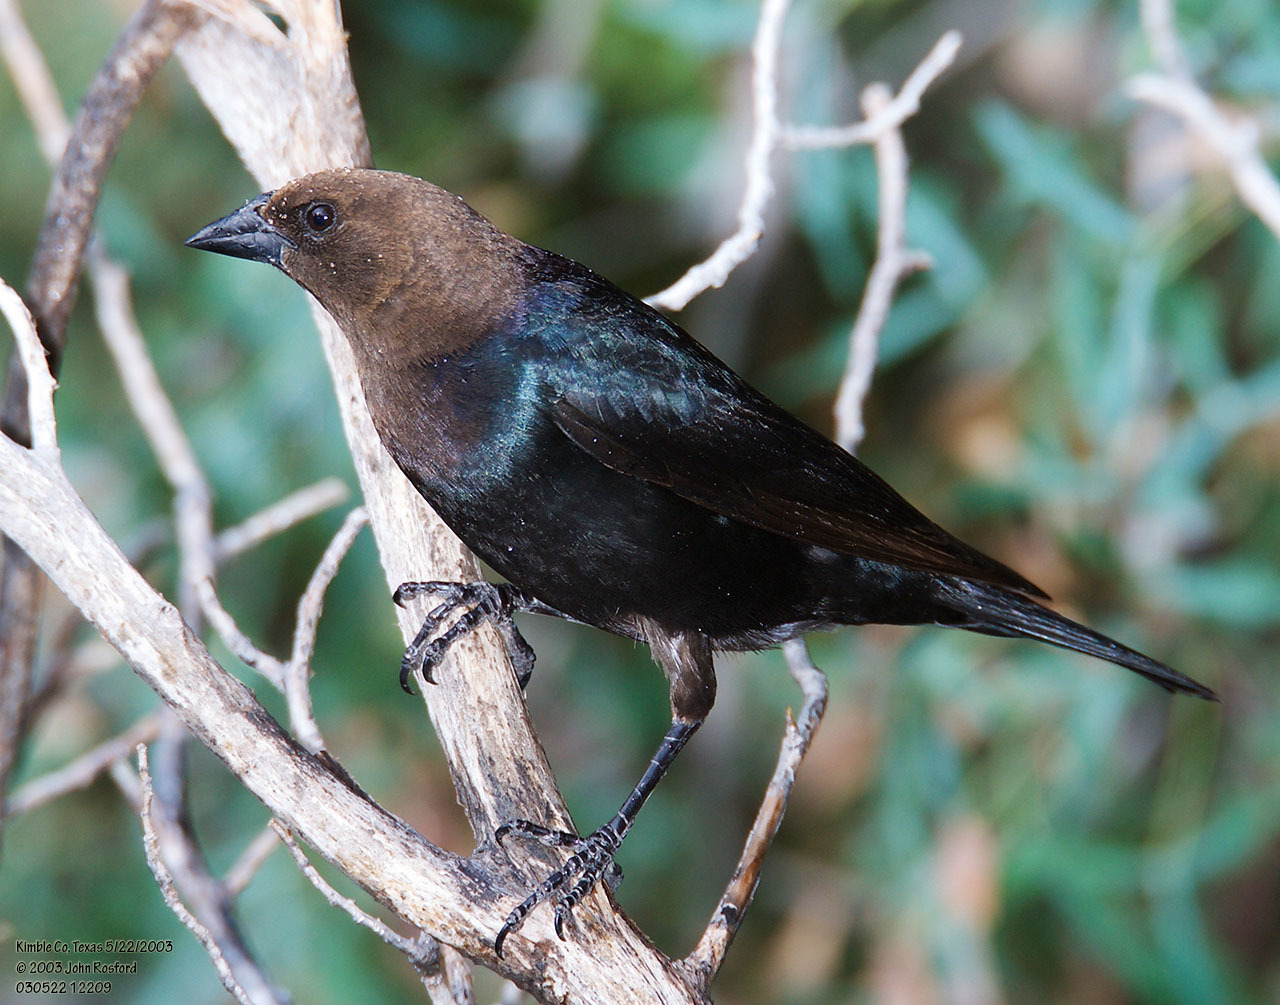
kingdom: Animalia
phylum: Chordata
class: Aves
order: Passeriformes
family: Icteridae
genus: Molothrus
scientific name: Molothrus ater
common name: Brown-headed cowbird
